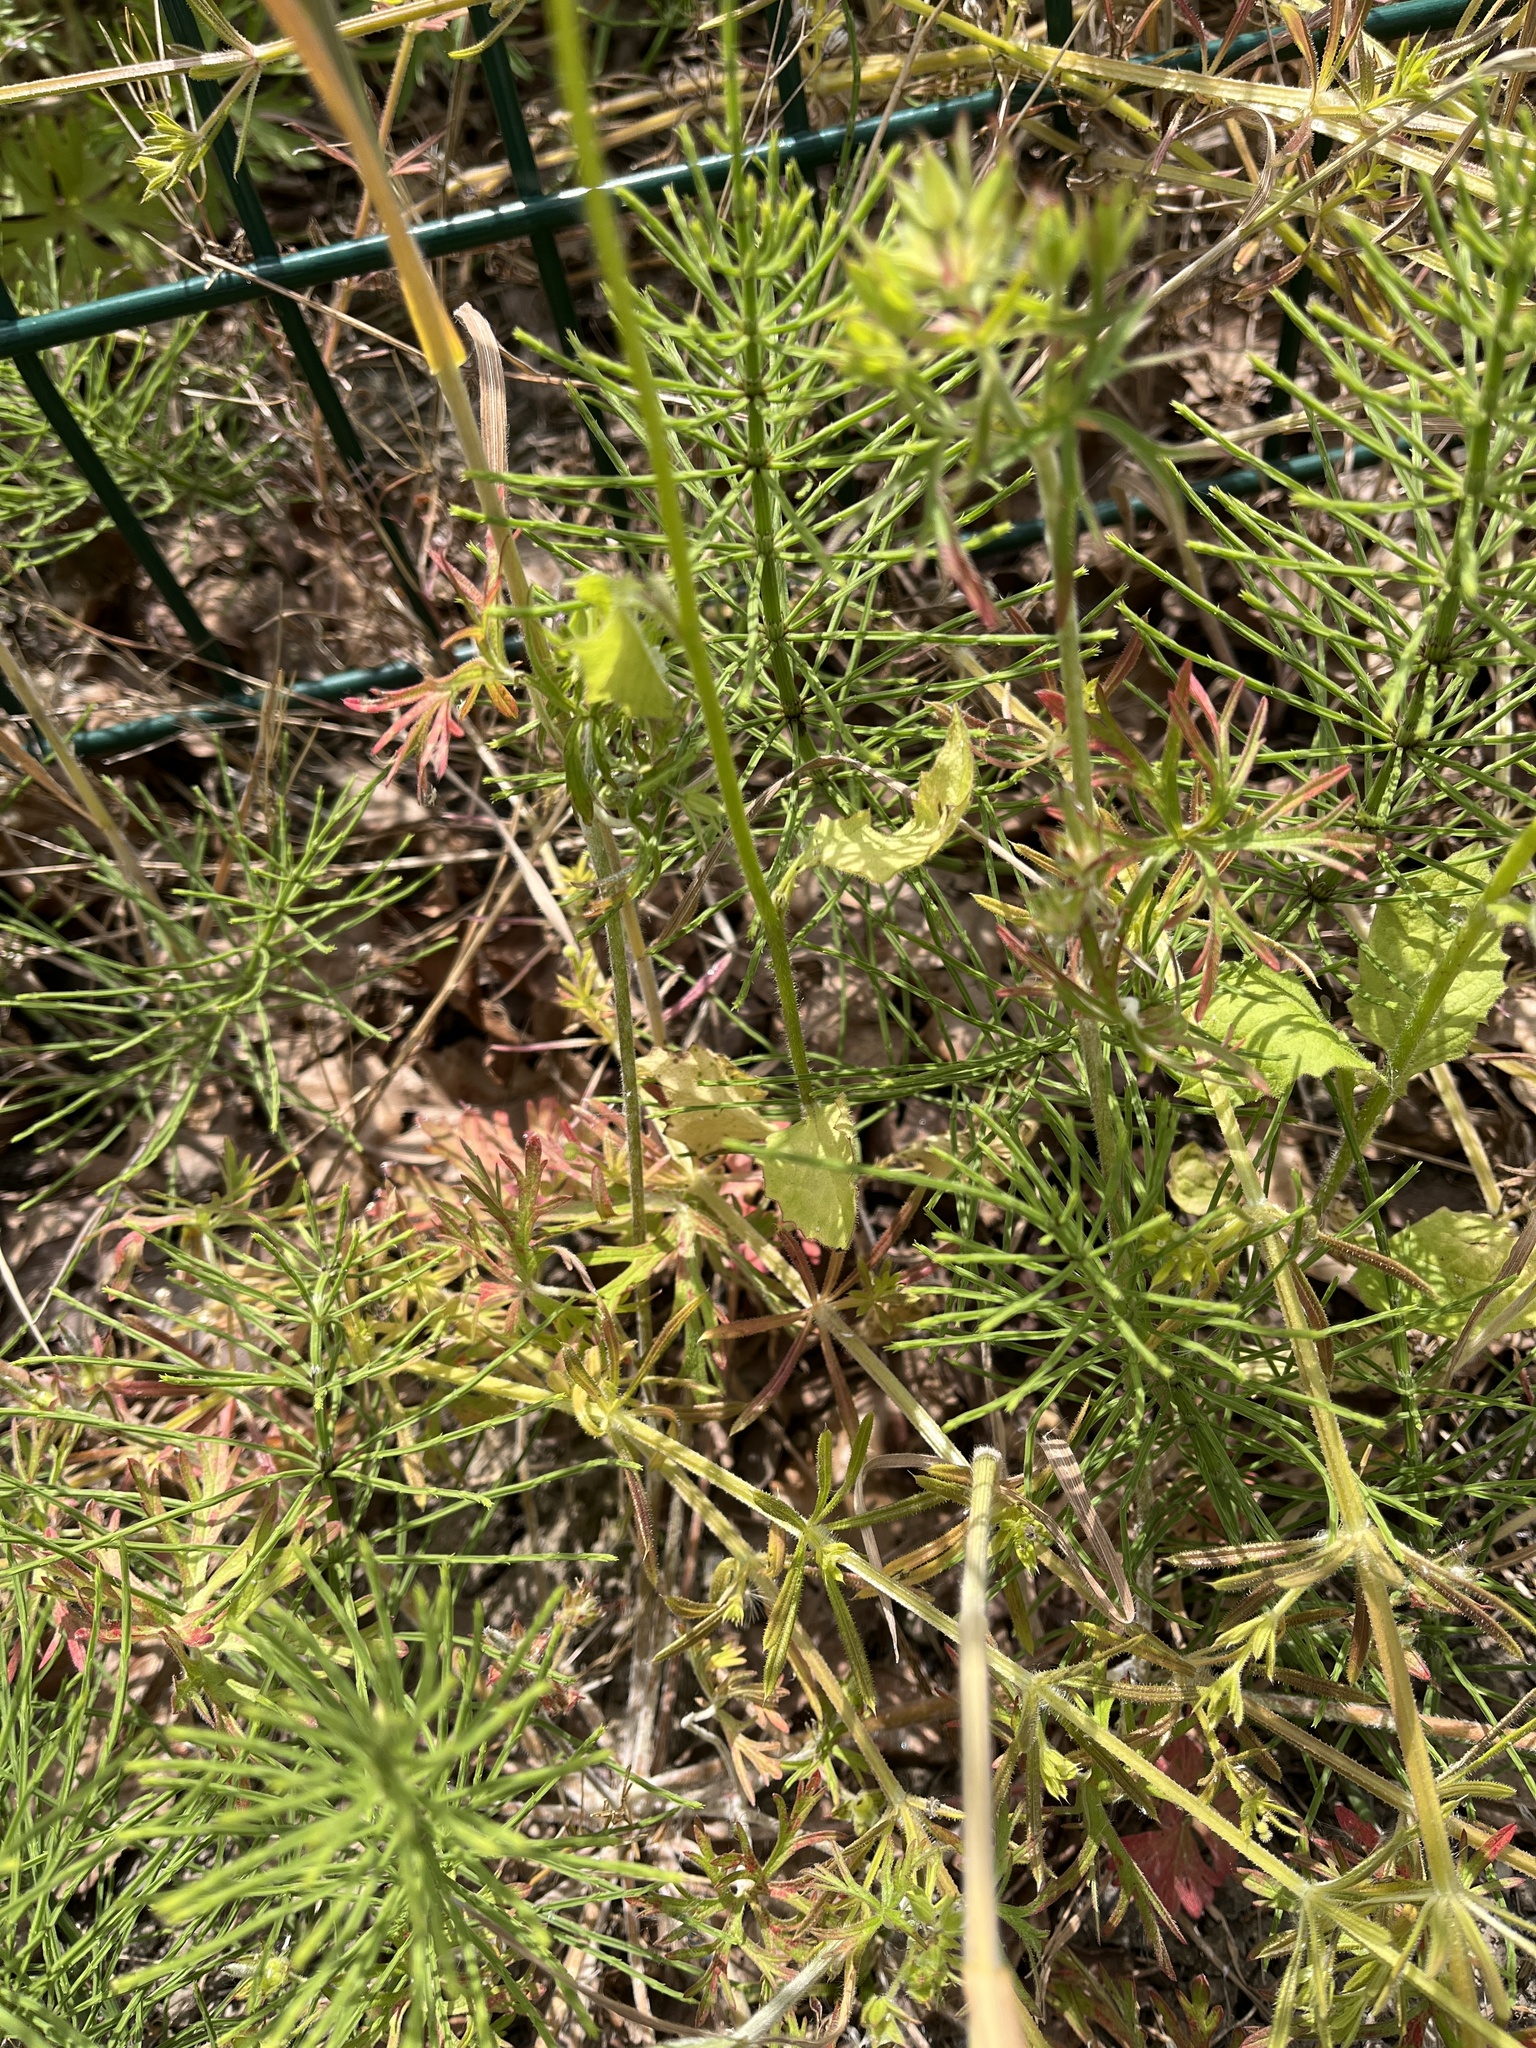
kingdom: Plantae
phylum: Tracheophyta
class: Magnoliopsida
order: Asterales
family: Asteraceae
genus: Lapsana
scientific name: Lapsana communis
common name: Nipplewort
